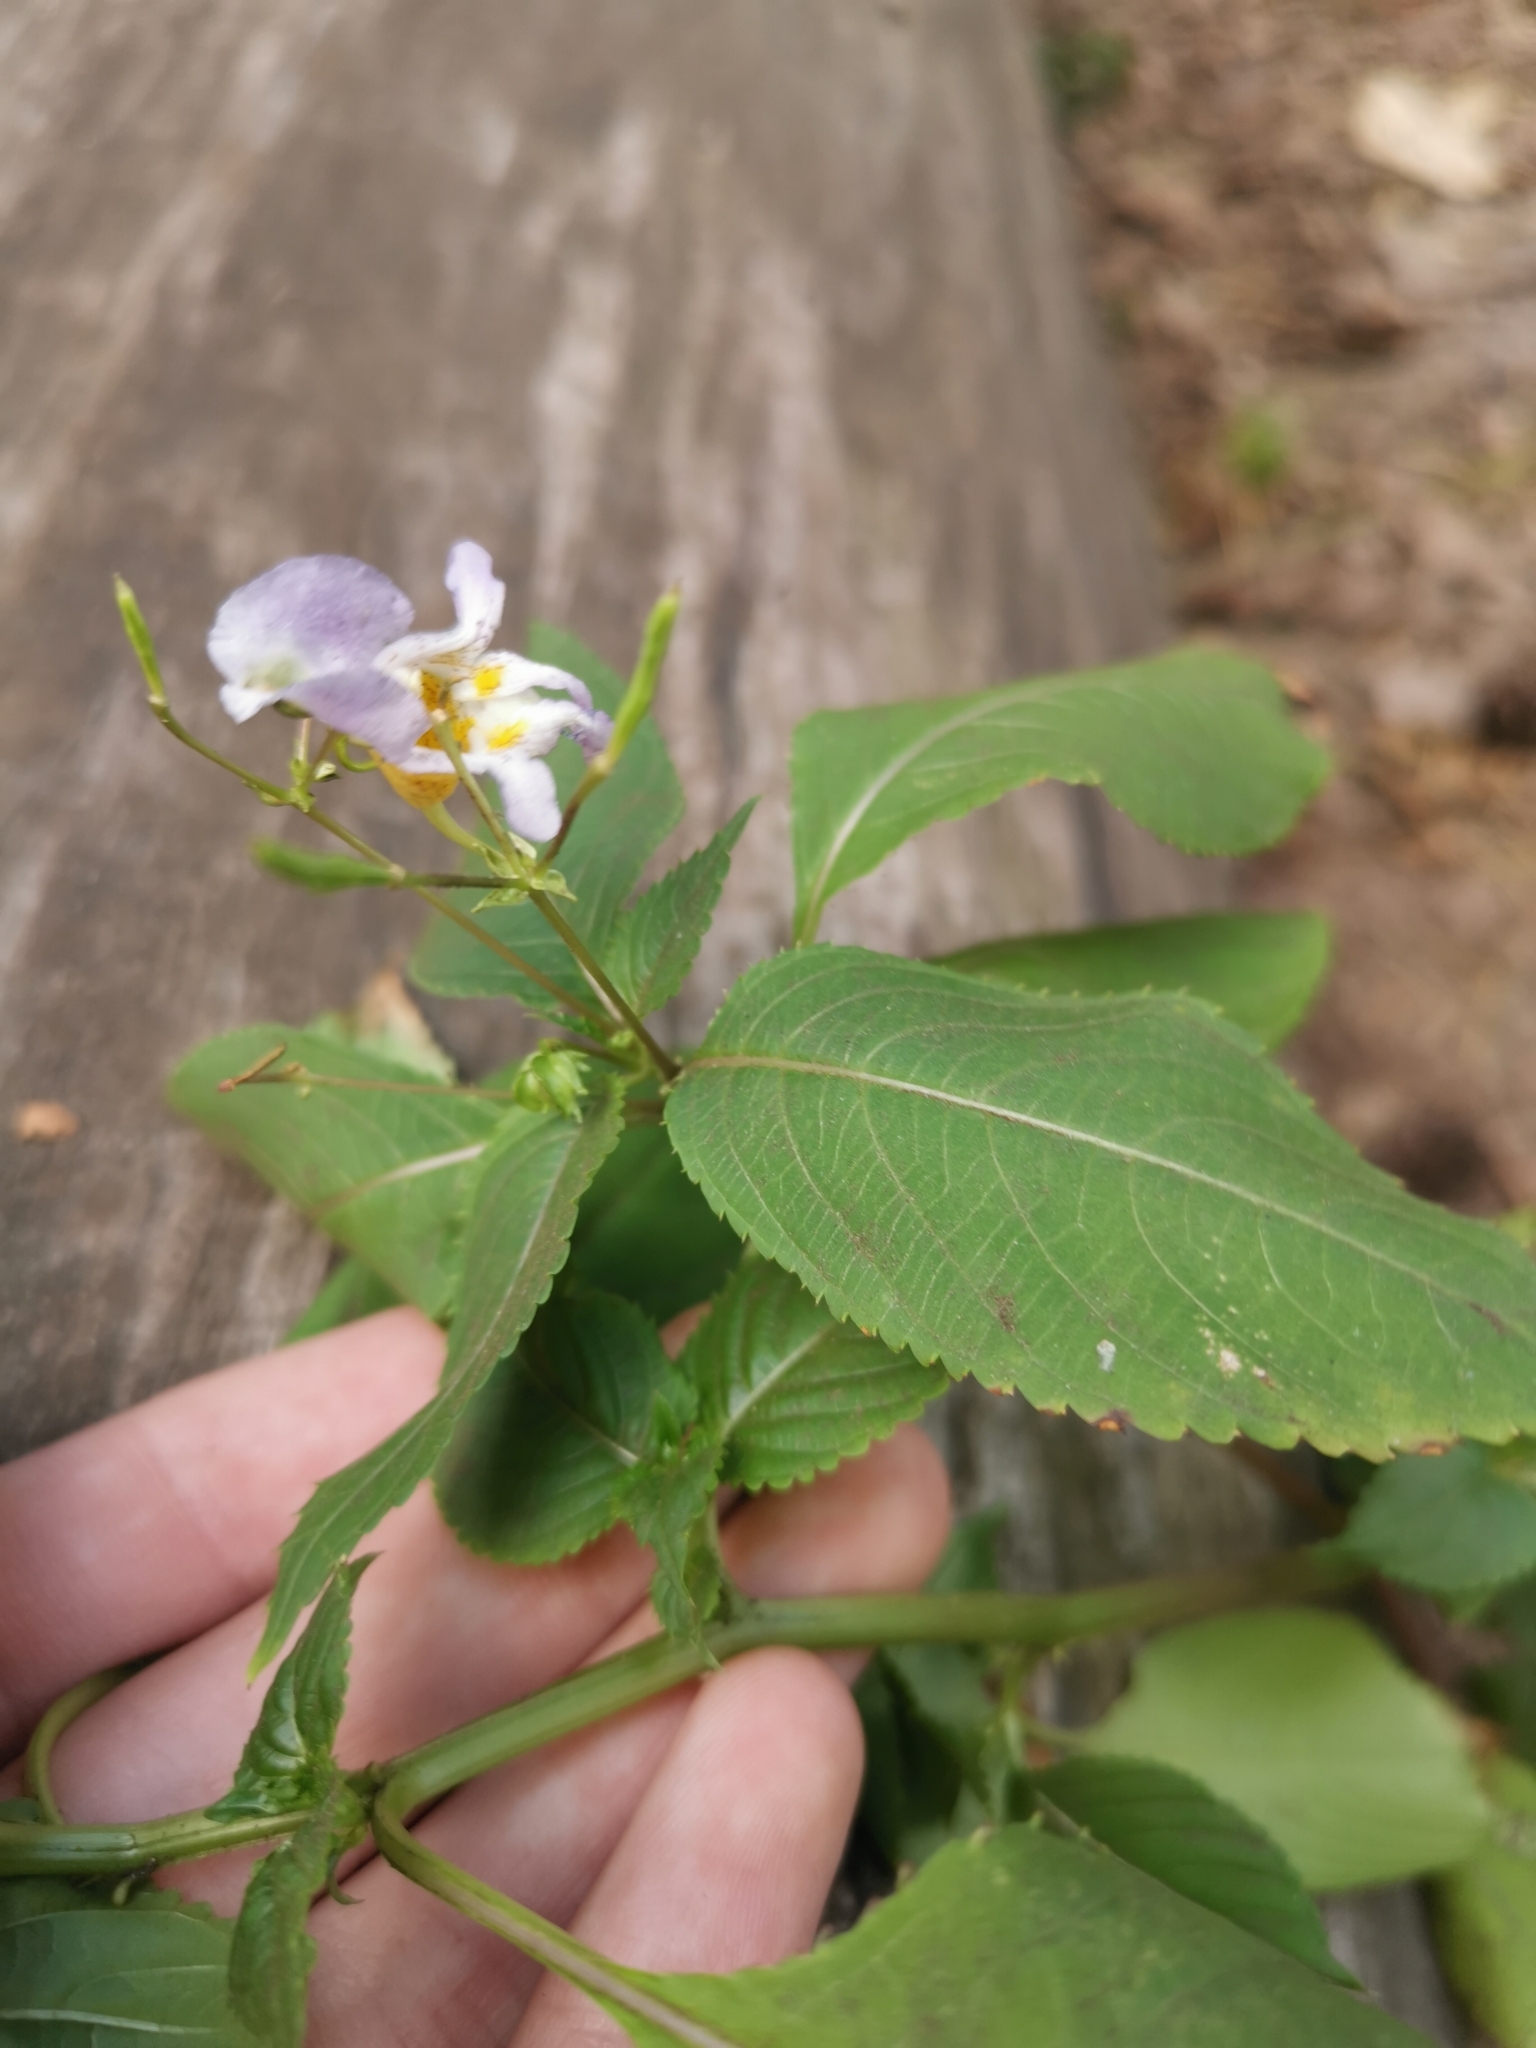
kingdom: Plantae
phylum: Tracheophyta
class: Magnoliopsida
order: Ericales
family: Balsaminaceae
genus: Impatiens
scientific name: Impatiens edgeworthii
